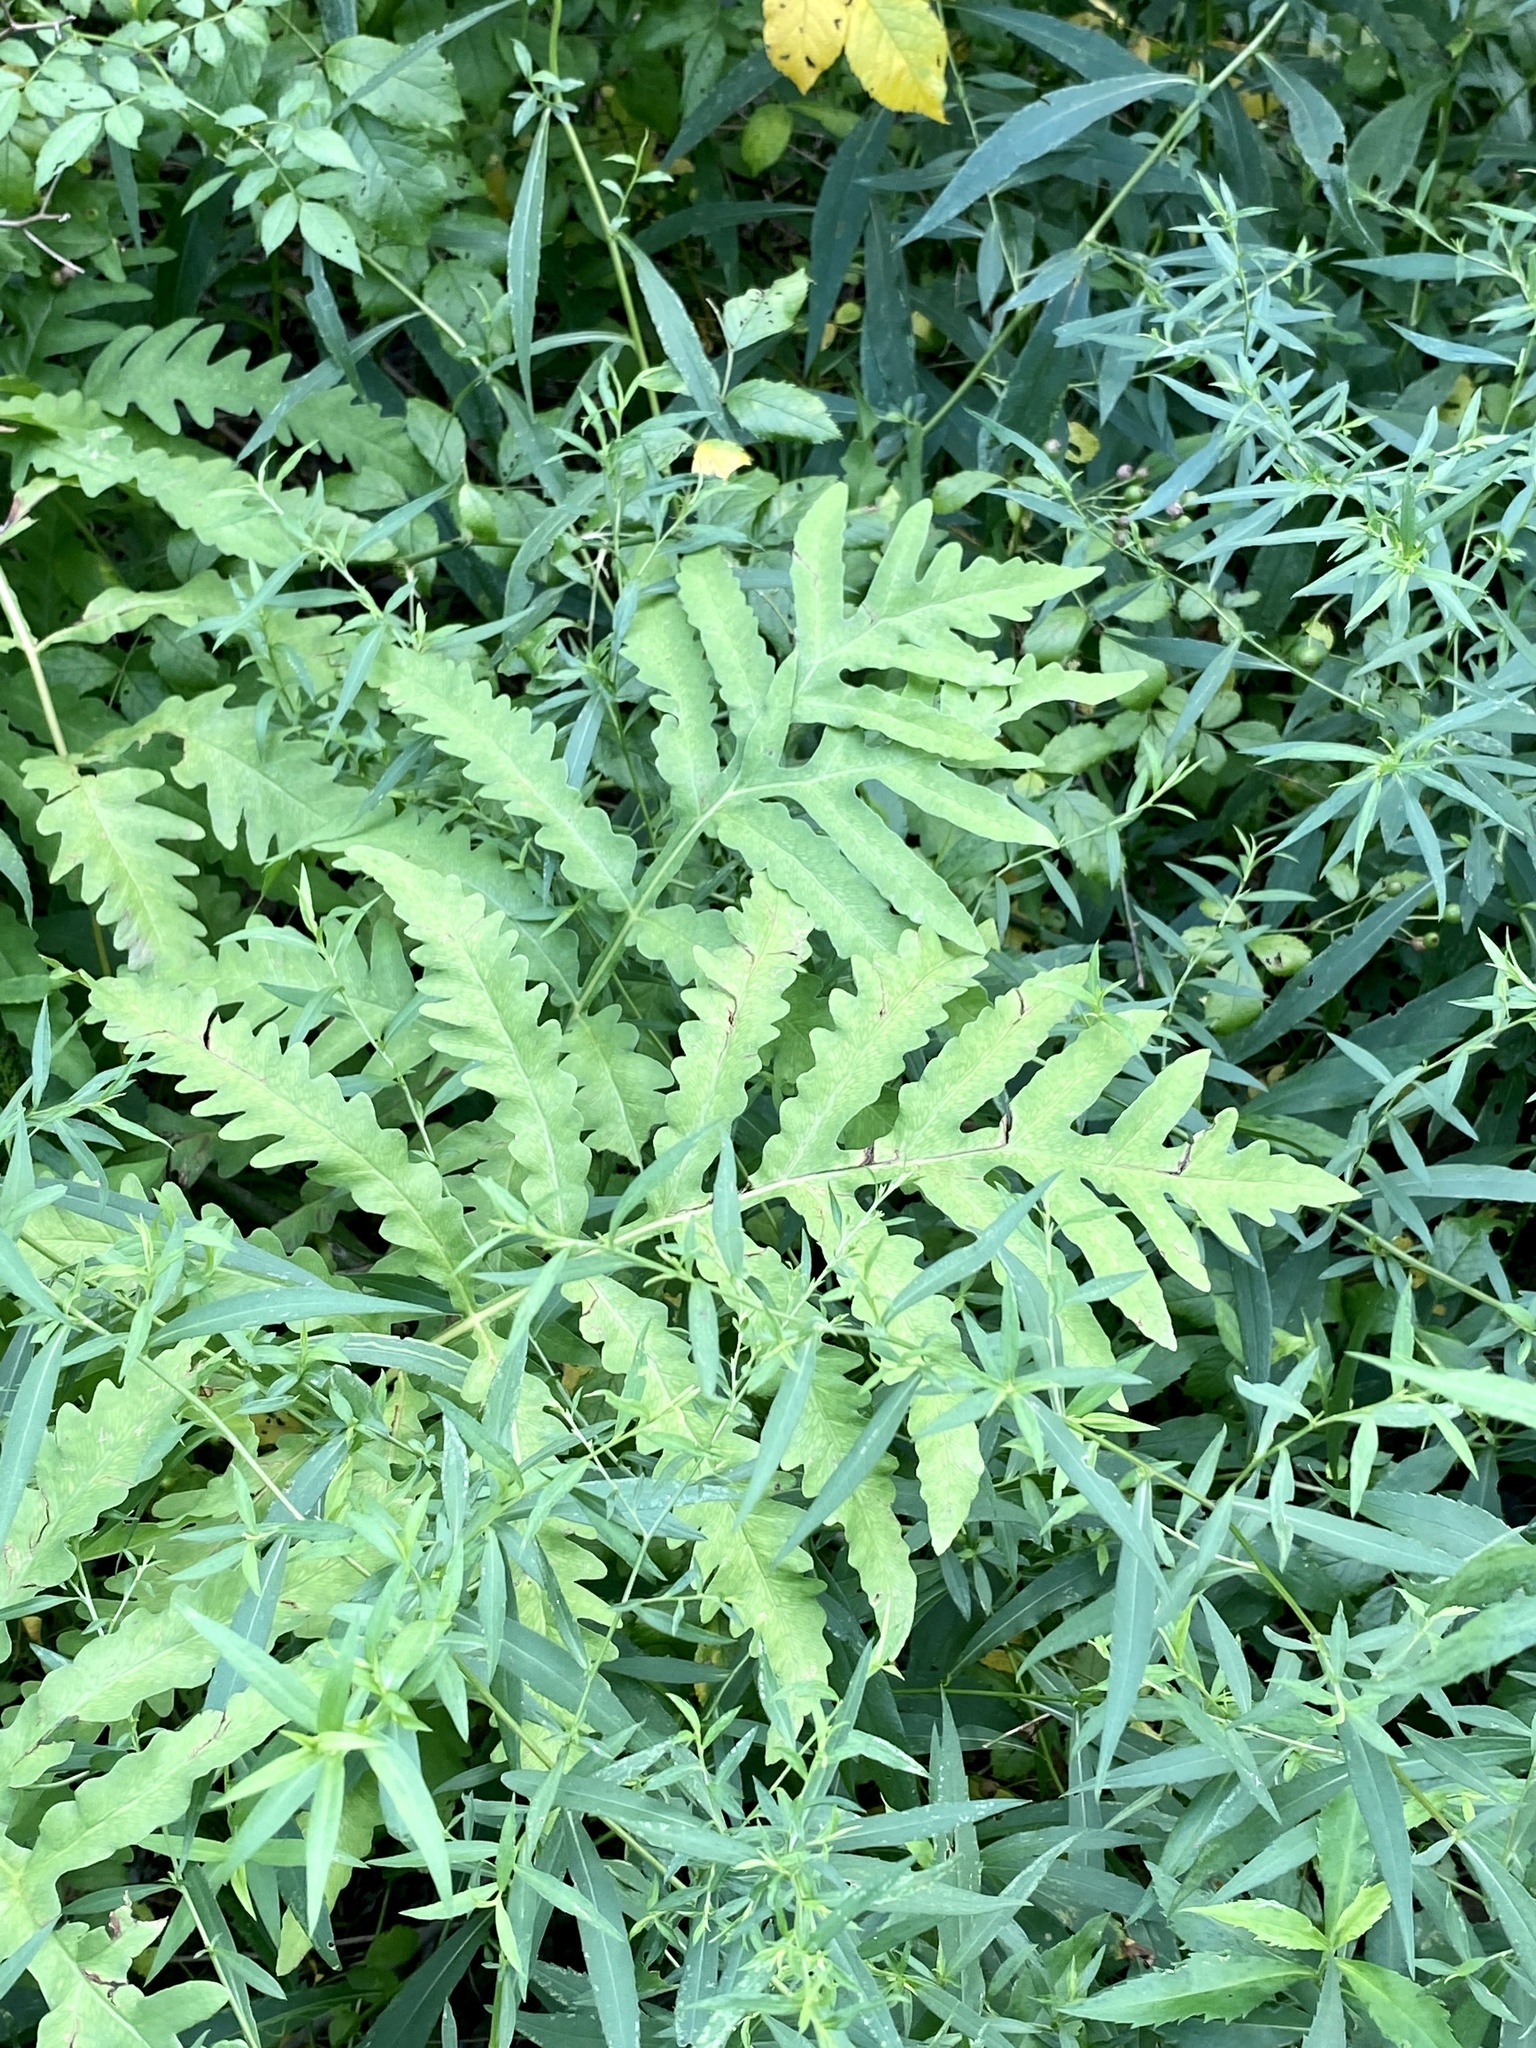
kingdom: Plantae
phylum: Tracheophyta
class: Polypodiopsida
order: Polypodiales
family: Onocleaceae
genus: Onoclea
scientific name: Onoclea sensibilis
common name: Sensitive fern
